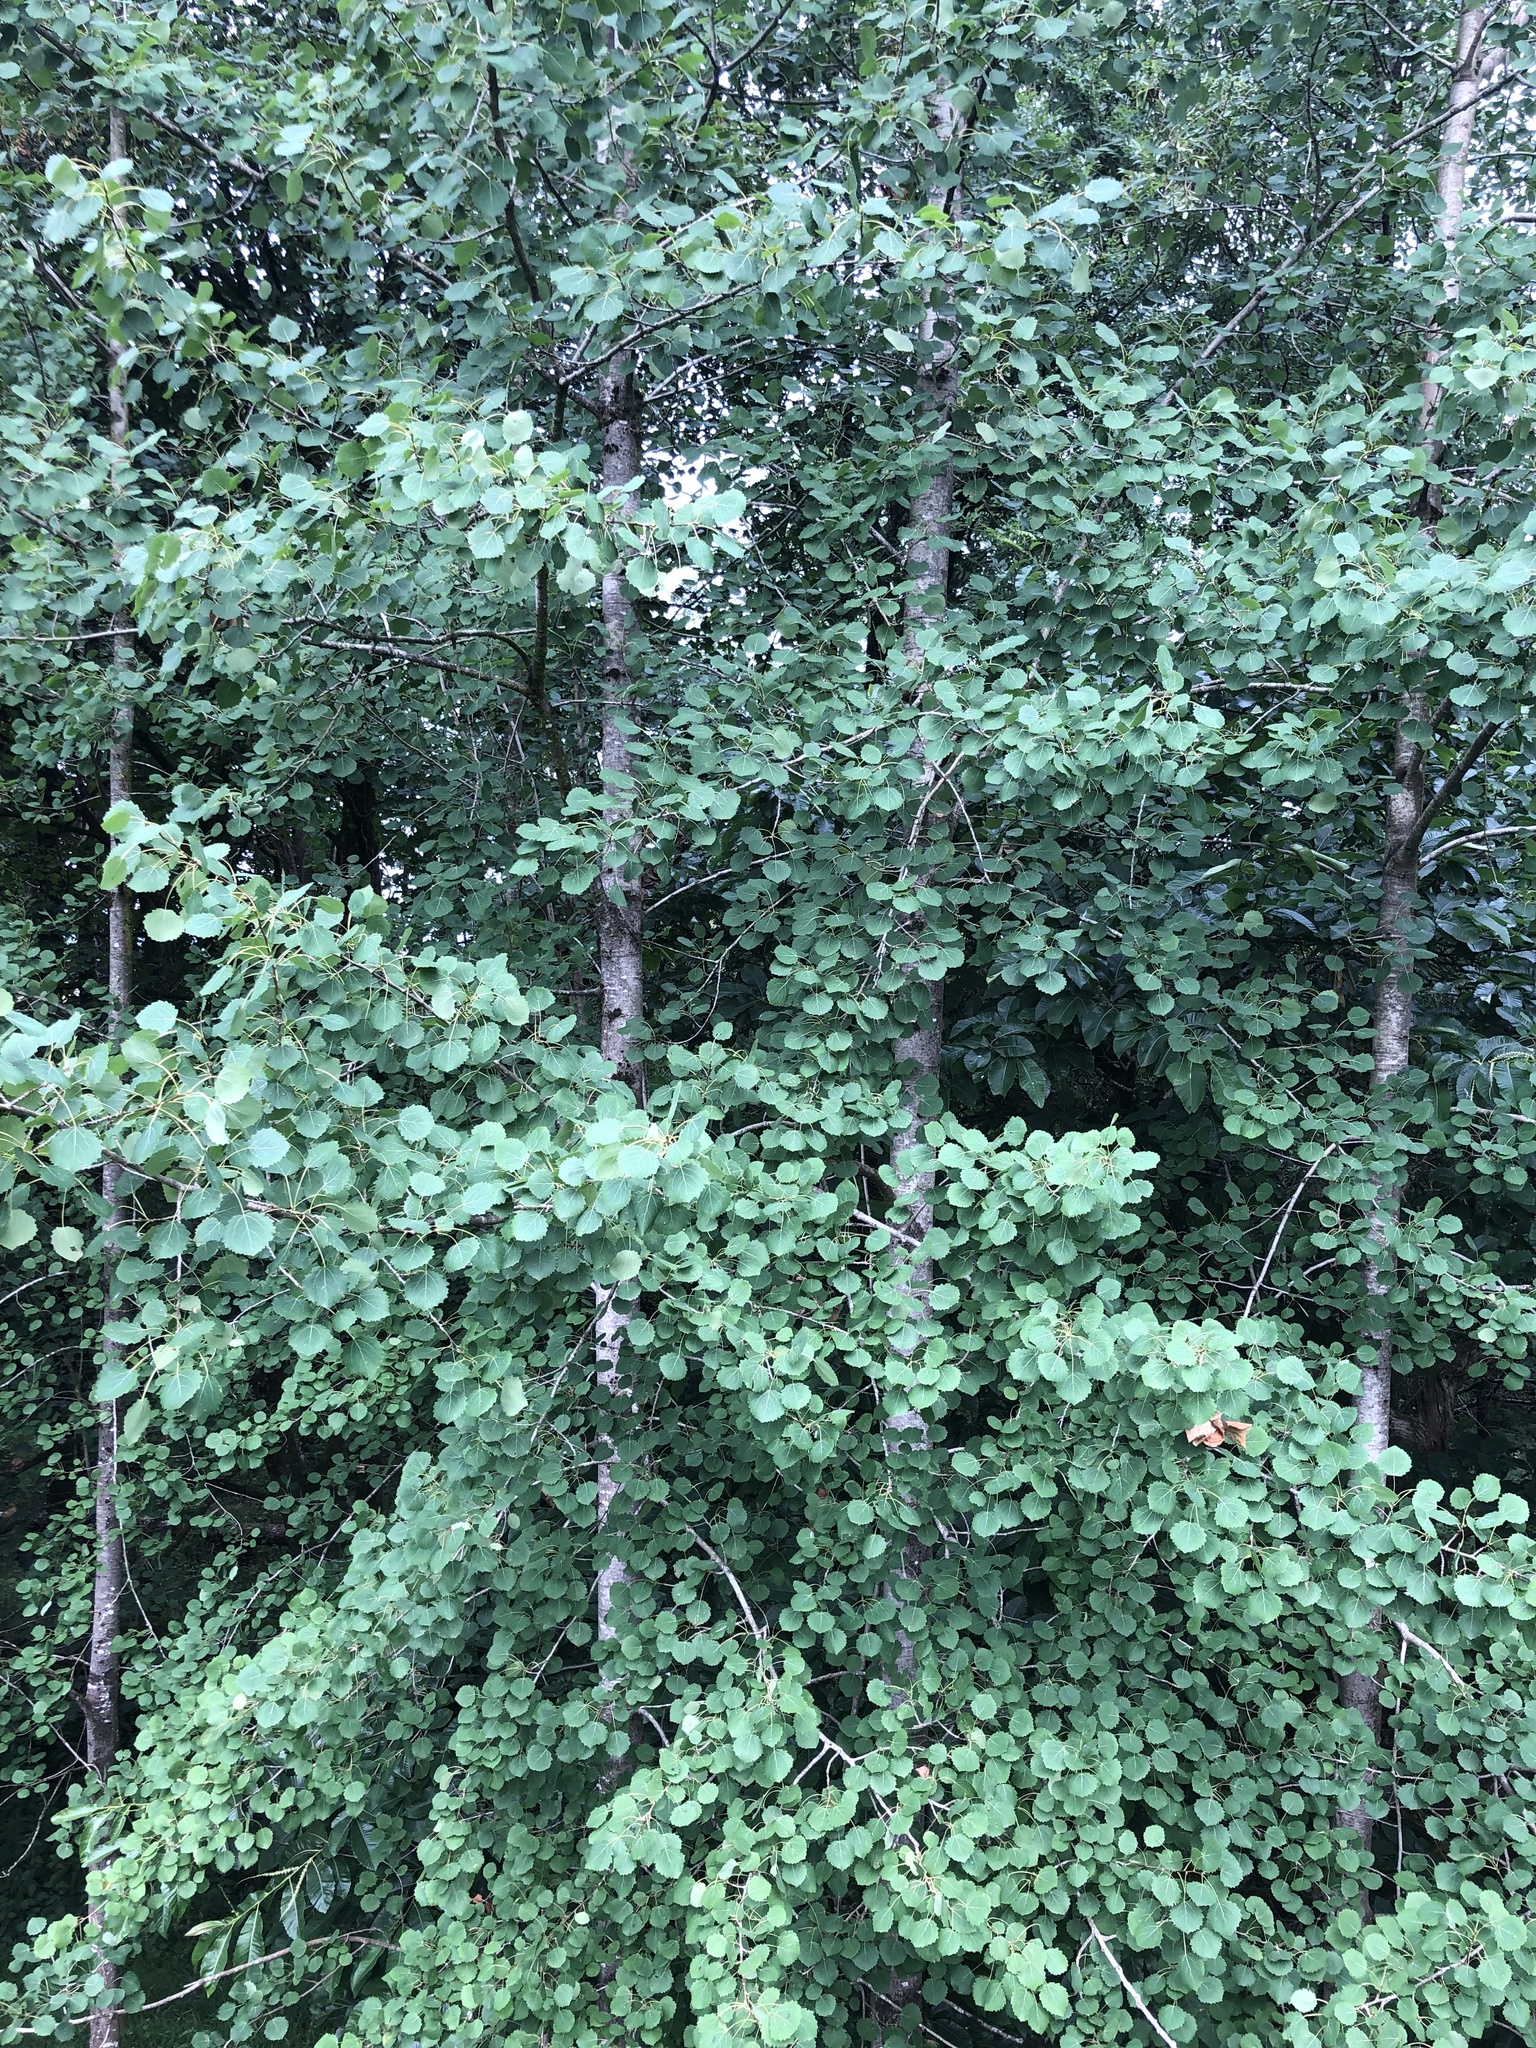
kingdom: Plantae
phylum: Tracheophyta
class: Magnoliopsida
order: Malpighiales
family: Salicaceae
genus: Populus
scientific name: Populus tremula
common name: European aspen
